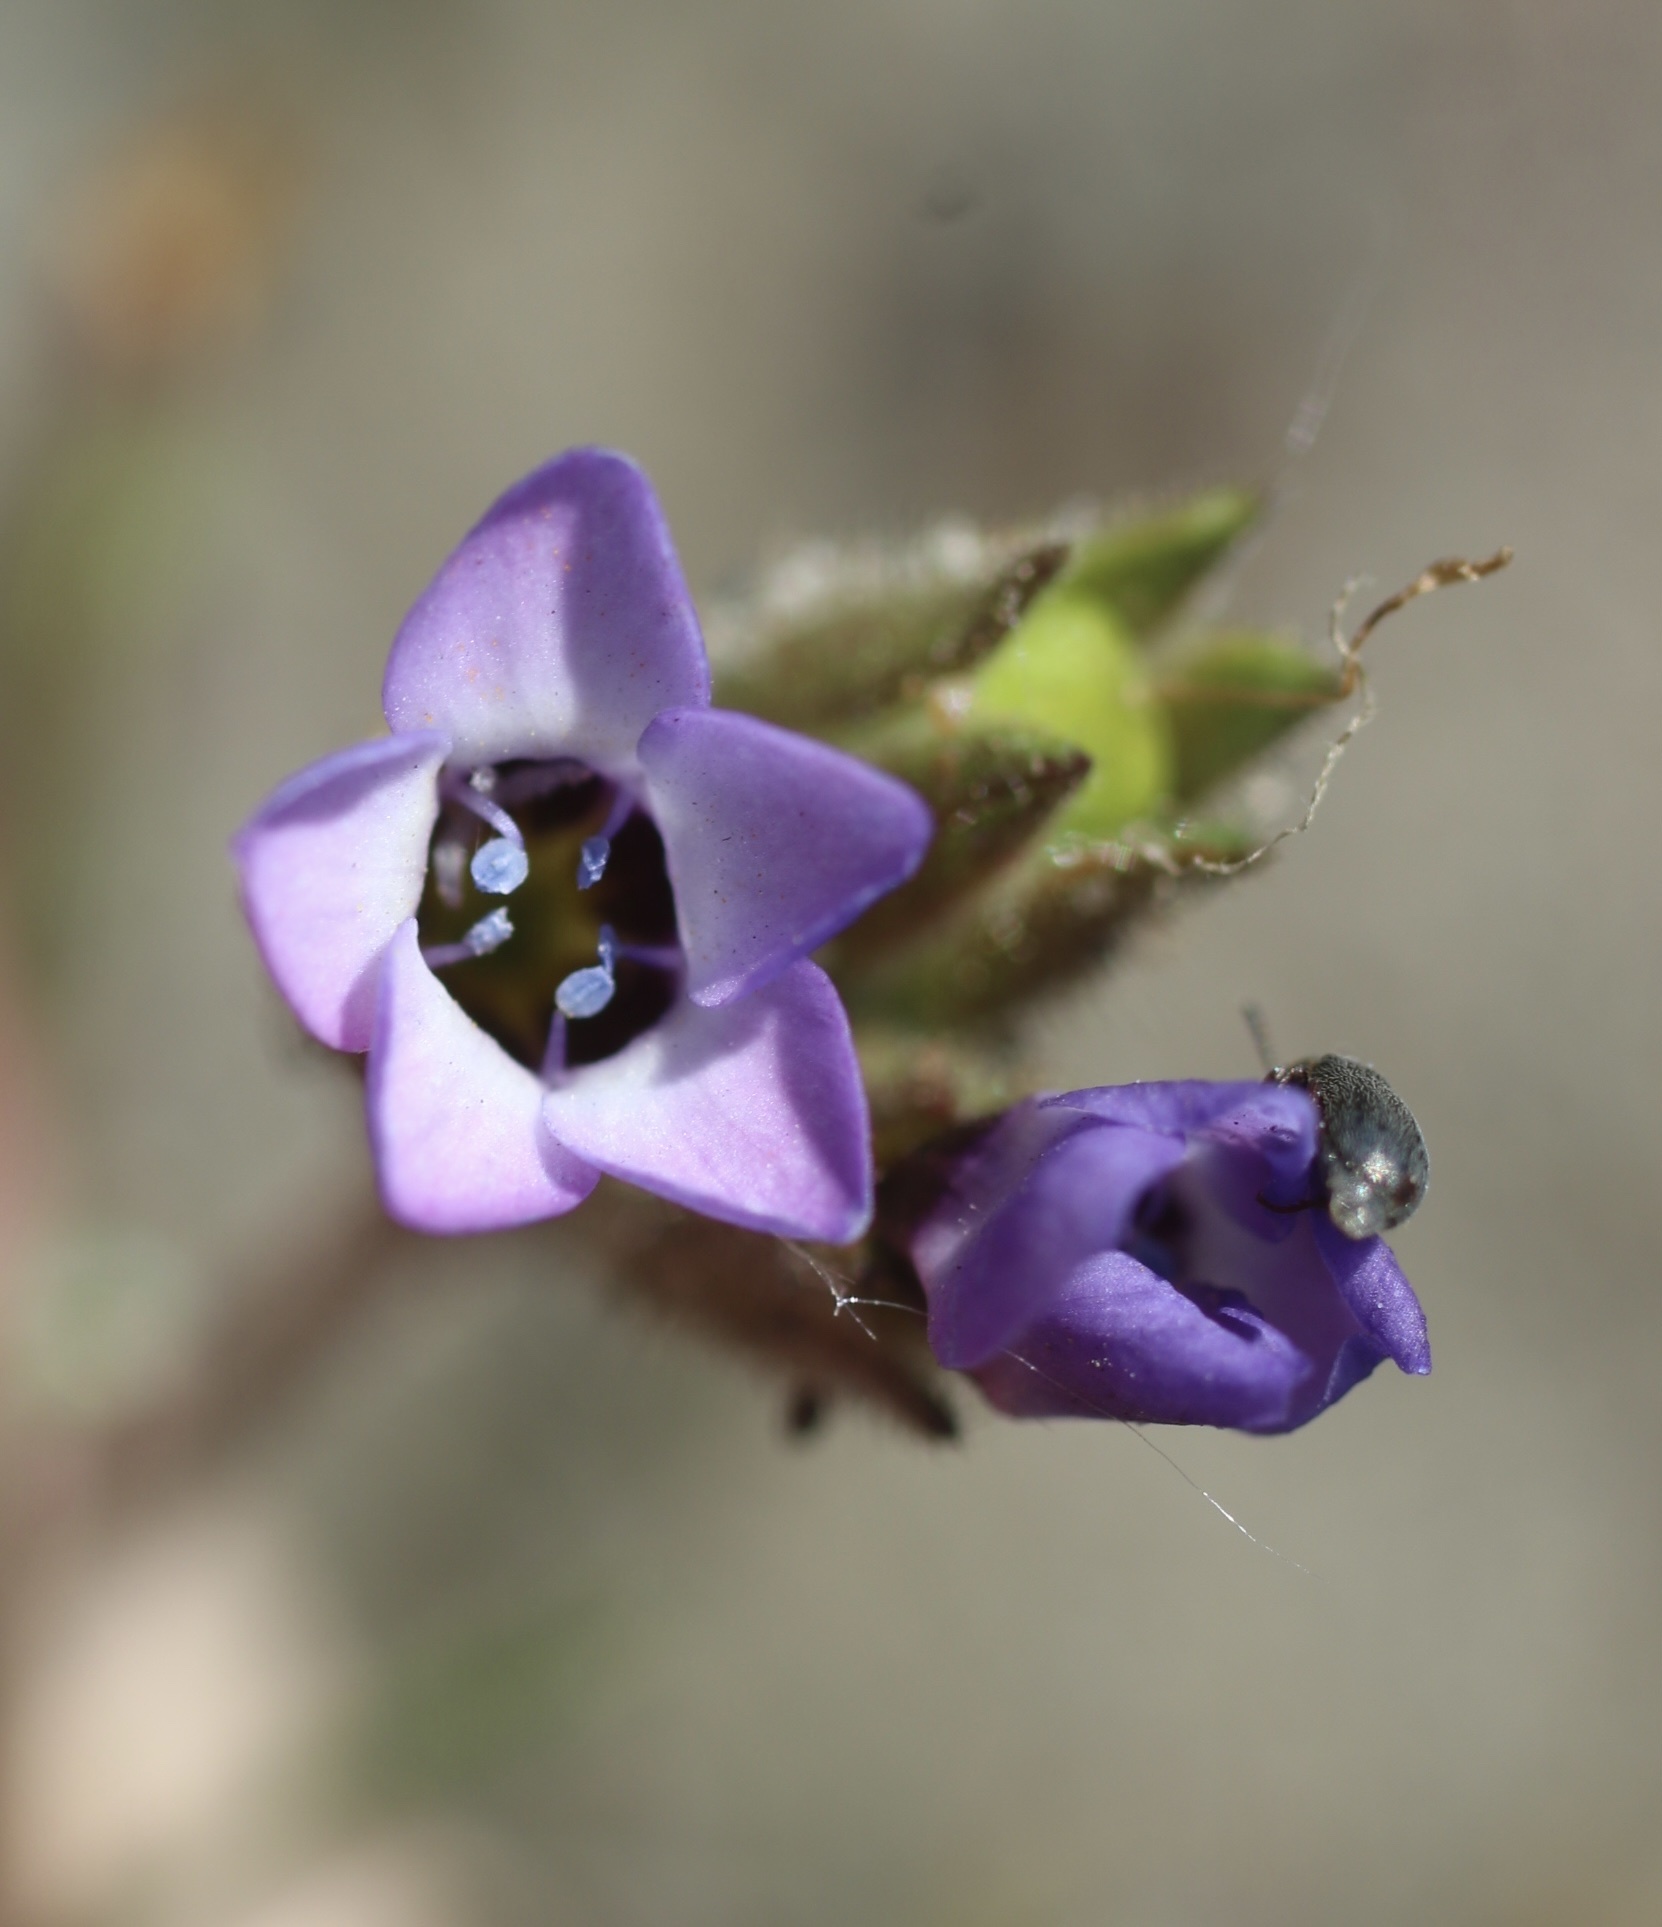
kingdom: Plantae
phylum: Tracheophyta
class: Magnoliopsida
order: Ericales
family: Polemoniaceae
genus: Gilia
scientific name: Gilia millefoliata
